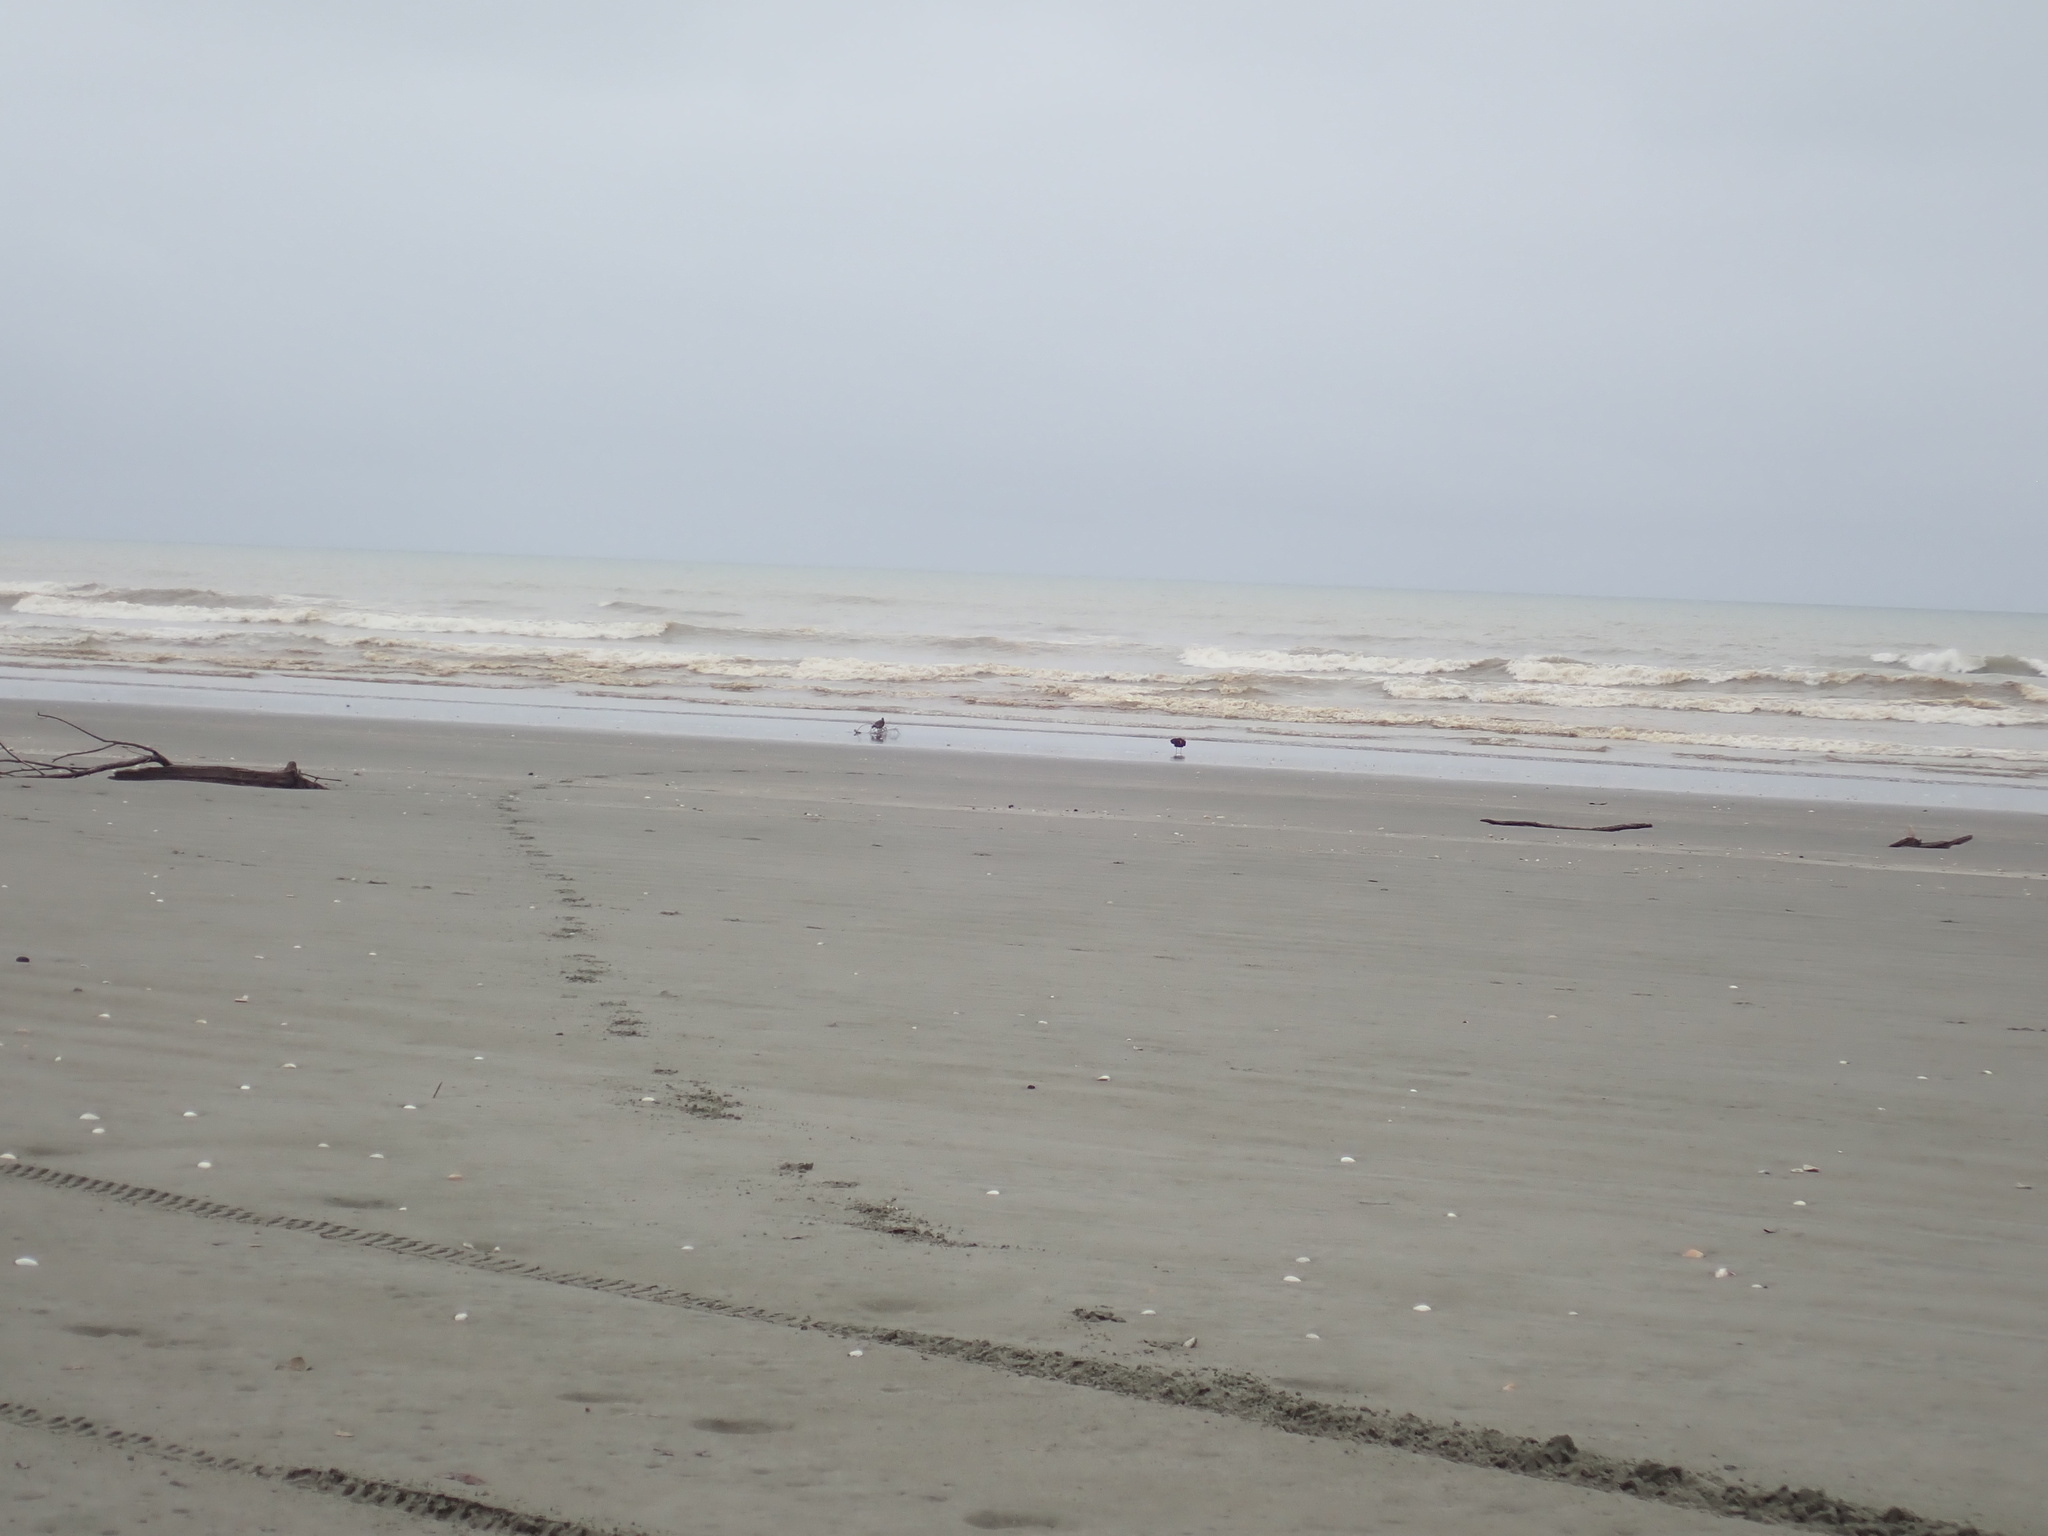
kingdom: Animalia
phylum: Chordata
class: Aves
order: Charadriiformes
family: Haematopodidae
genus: Haematopus
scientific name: Haematopus unicolor
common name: Variable oystercatcher
